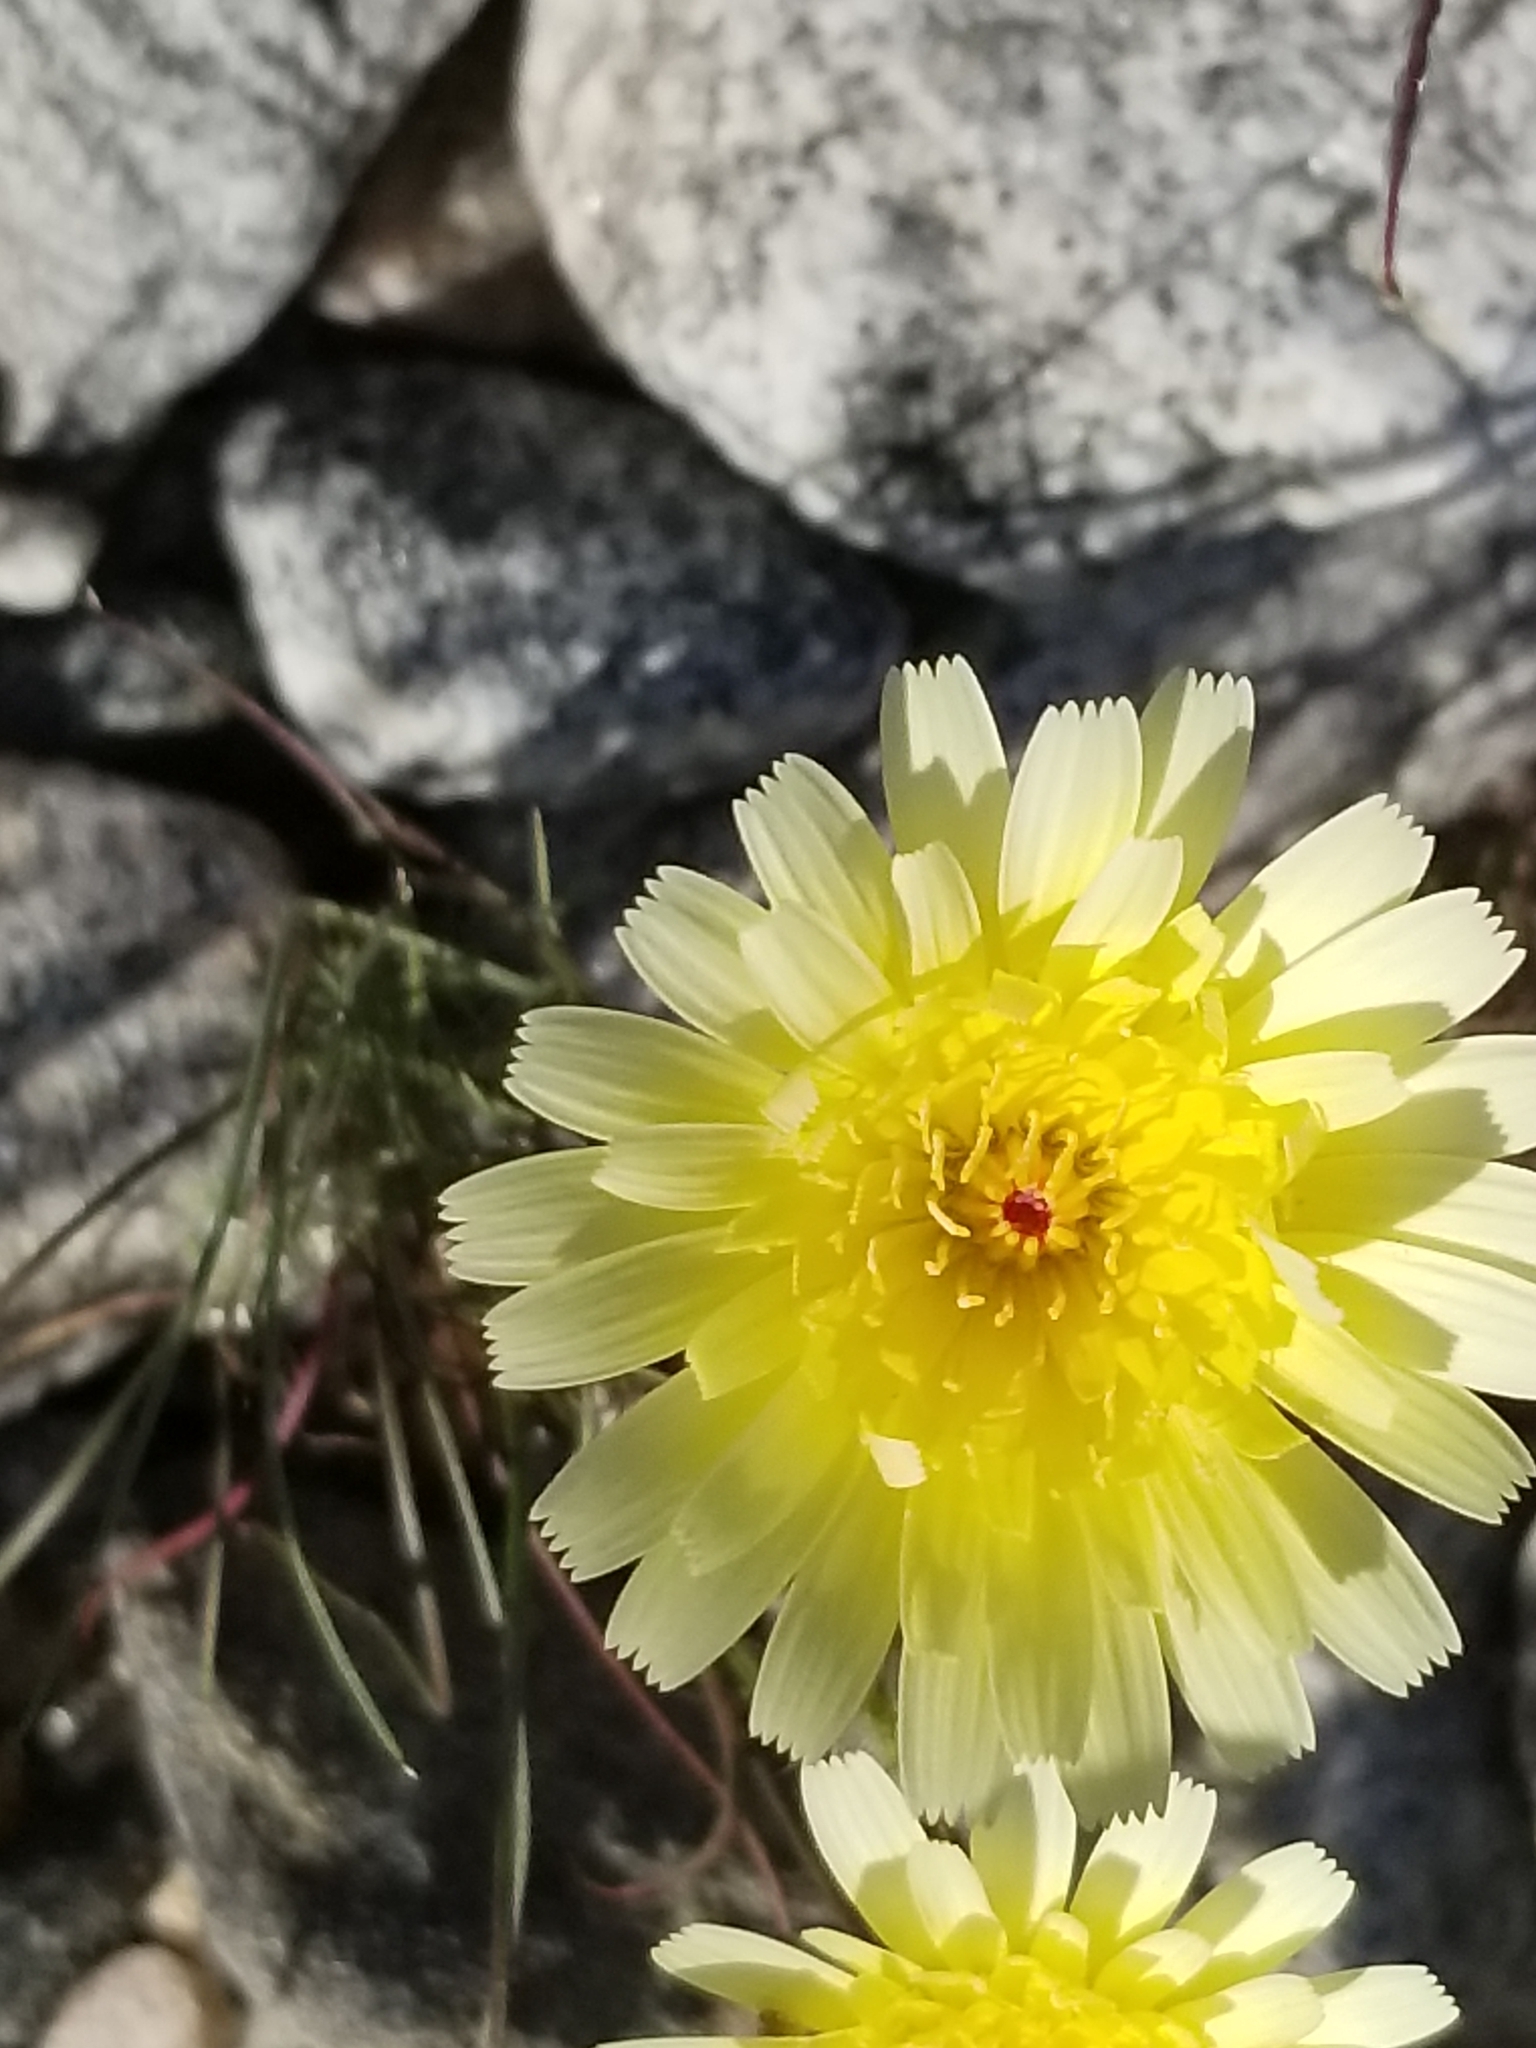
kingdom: Plantae
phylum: Tracheophyta
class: Magnoliopsida
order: Asterales
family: Asteraceae
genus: Malacothrix
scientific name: Malacothrix glabrata
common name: Smooth desert-dandelion
